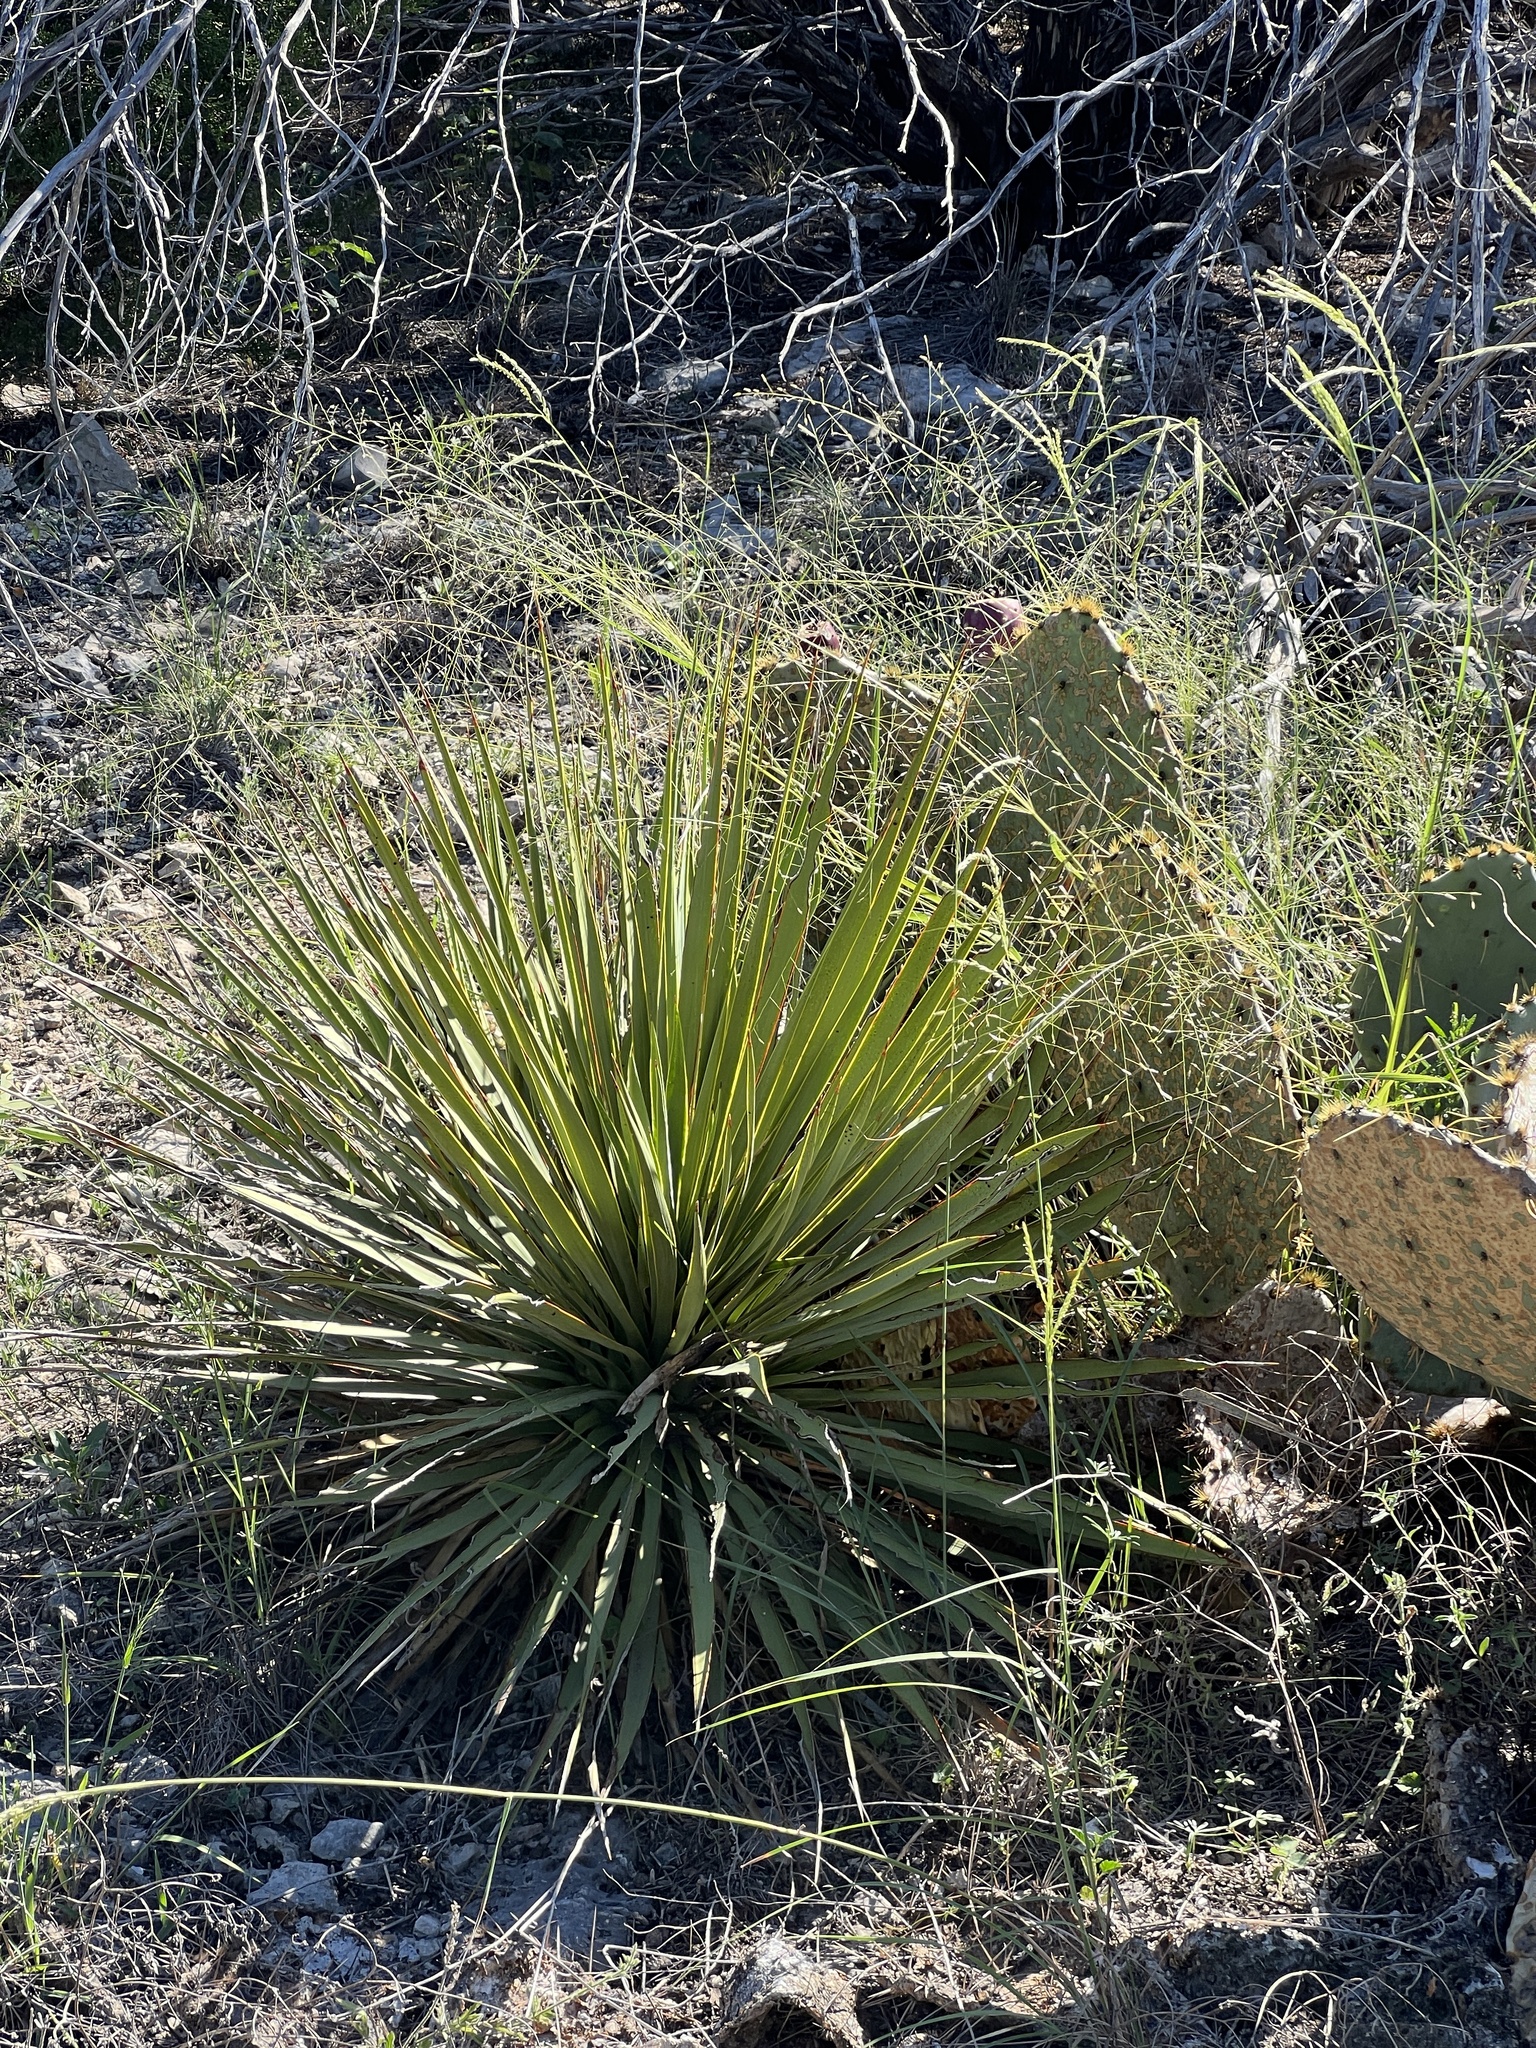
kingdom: Plantae
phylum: Tracheophyta
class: Liliopsida
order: Asparagales
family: Asparagaceae
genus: Yucca
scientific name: Yucca reverchonii
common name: San angelo yucca
